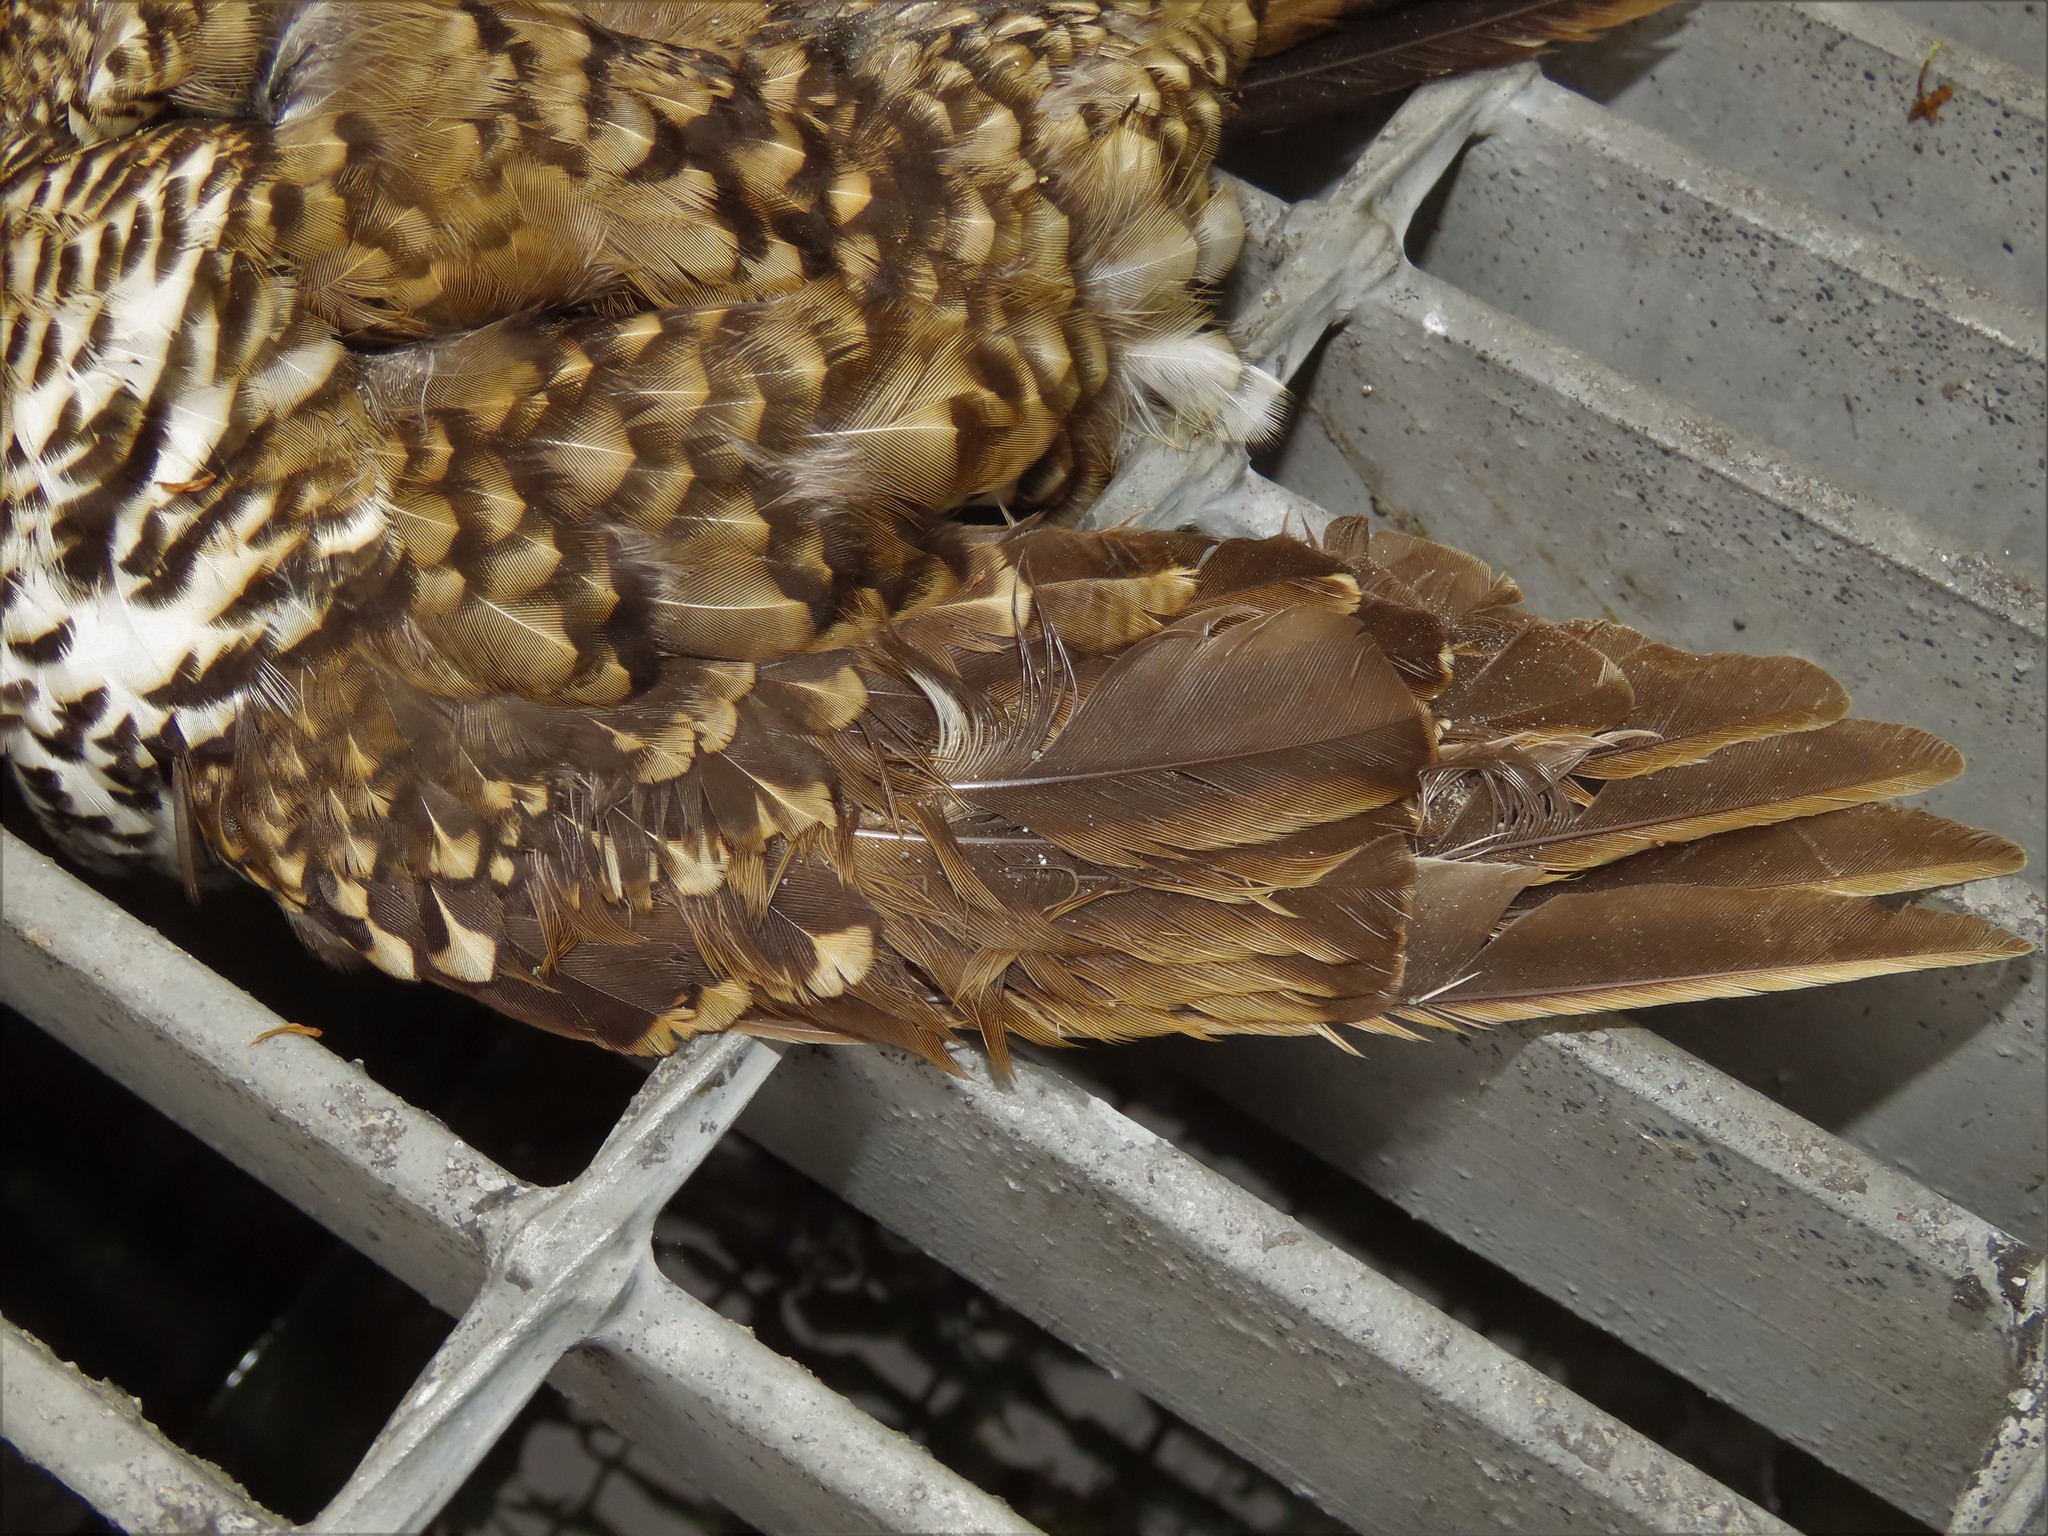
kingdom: Animalia
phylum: Chordata
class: Aves
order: Passeriformes
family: Turdidae
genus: Zoothera
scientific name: Zoothera aurea
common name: White's thrush
